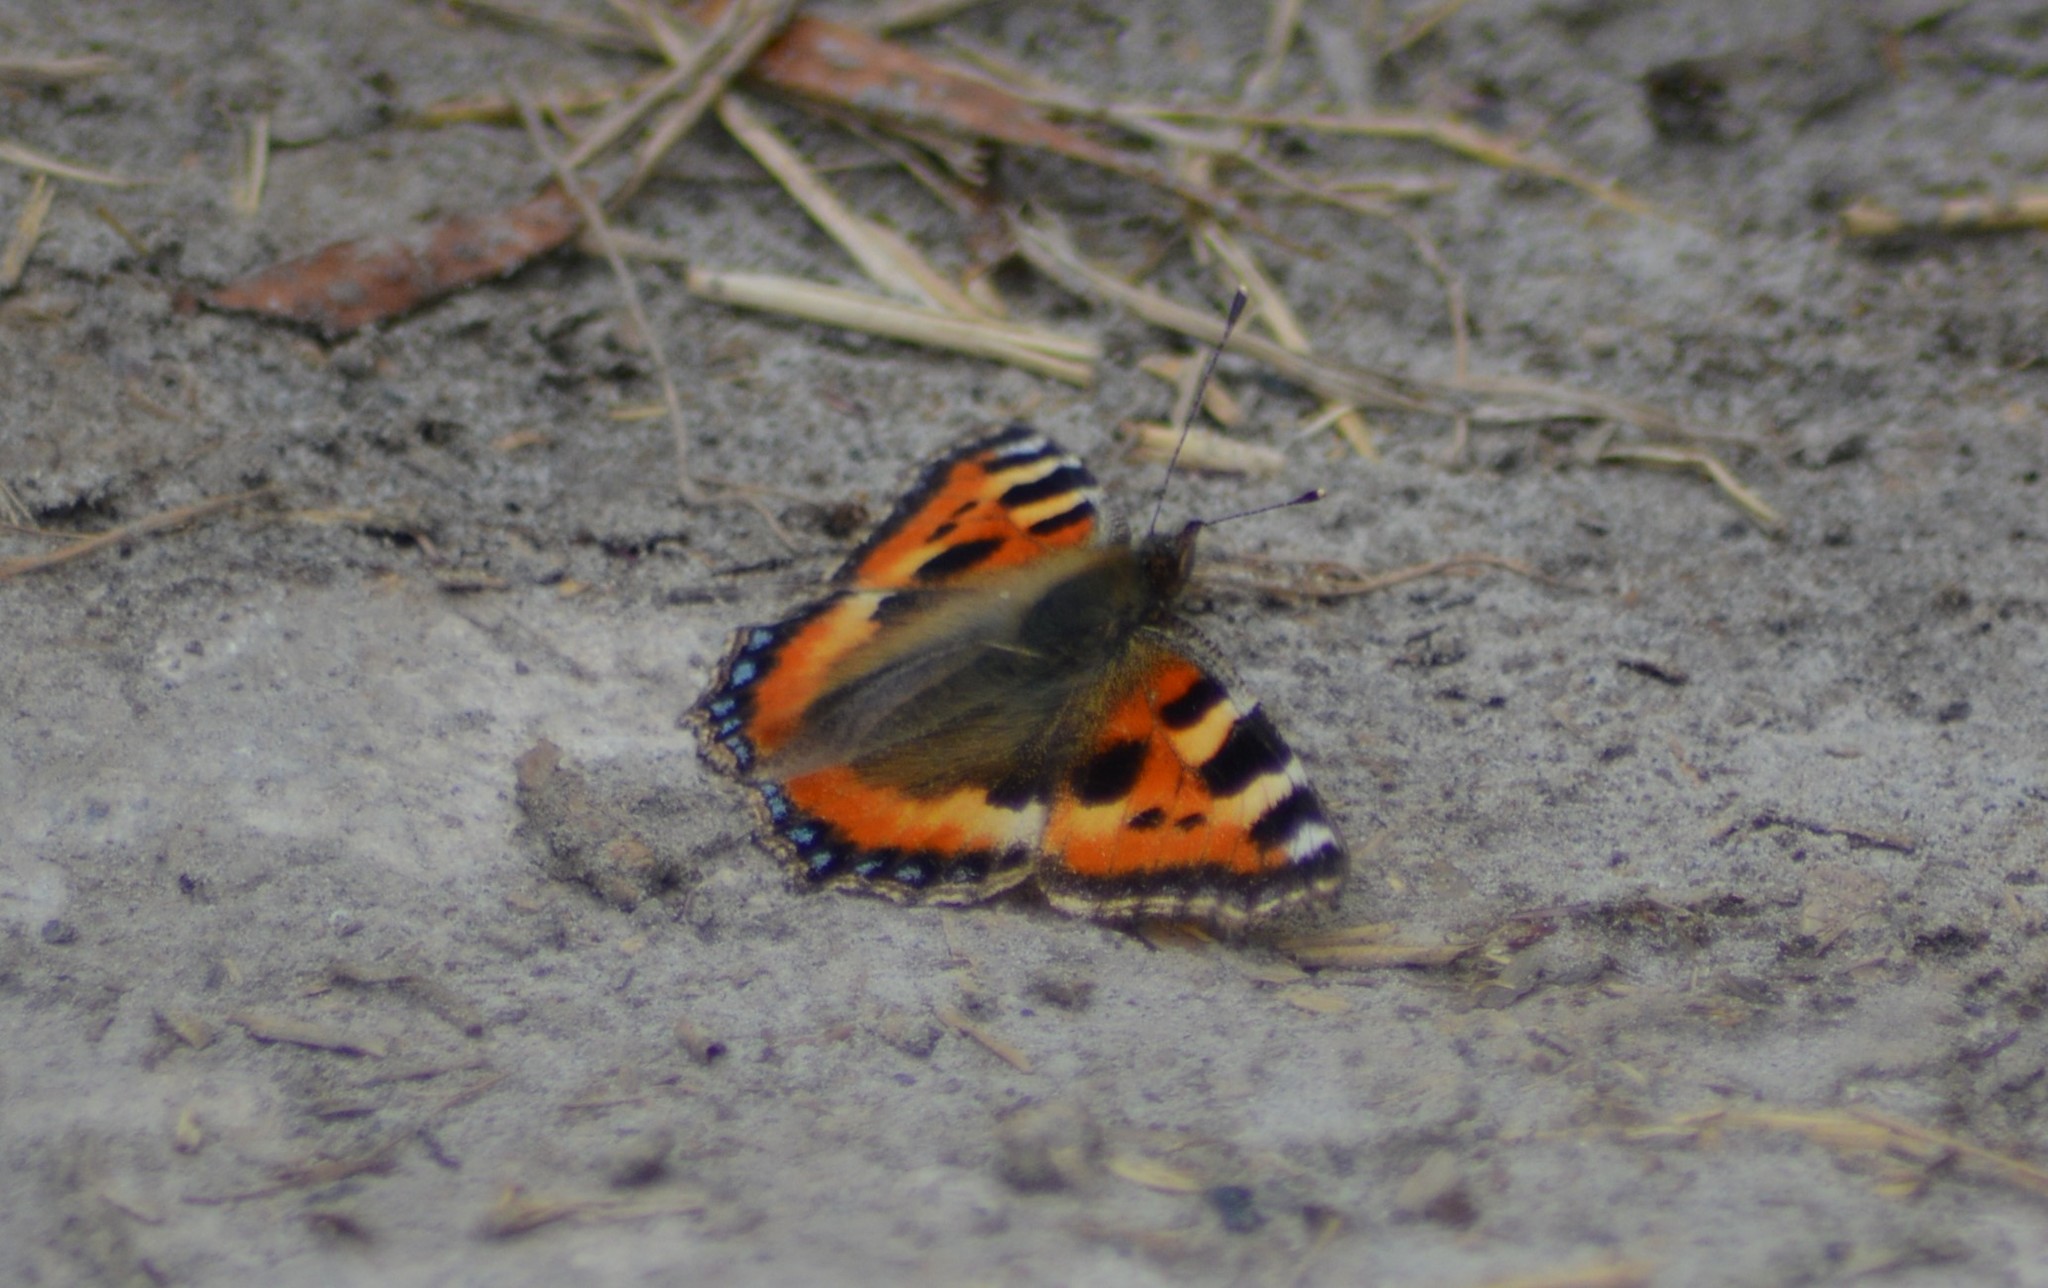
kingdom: Animalia
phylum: Arthropoda
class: Insecta
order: Lepidoptera
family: Nymphalidae
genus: Aglais
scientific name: Aglais urticae
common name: Small tortoiseshell
